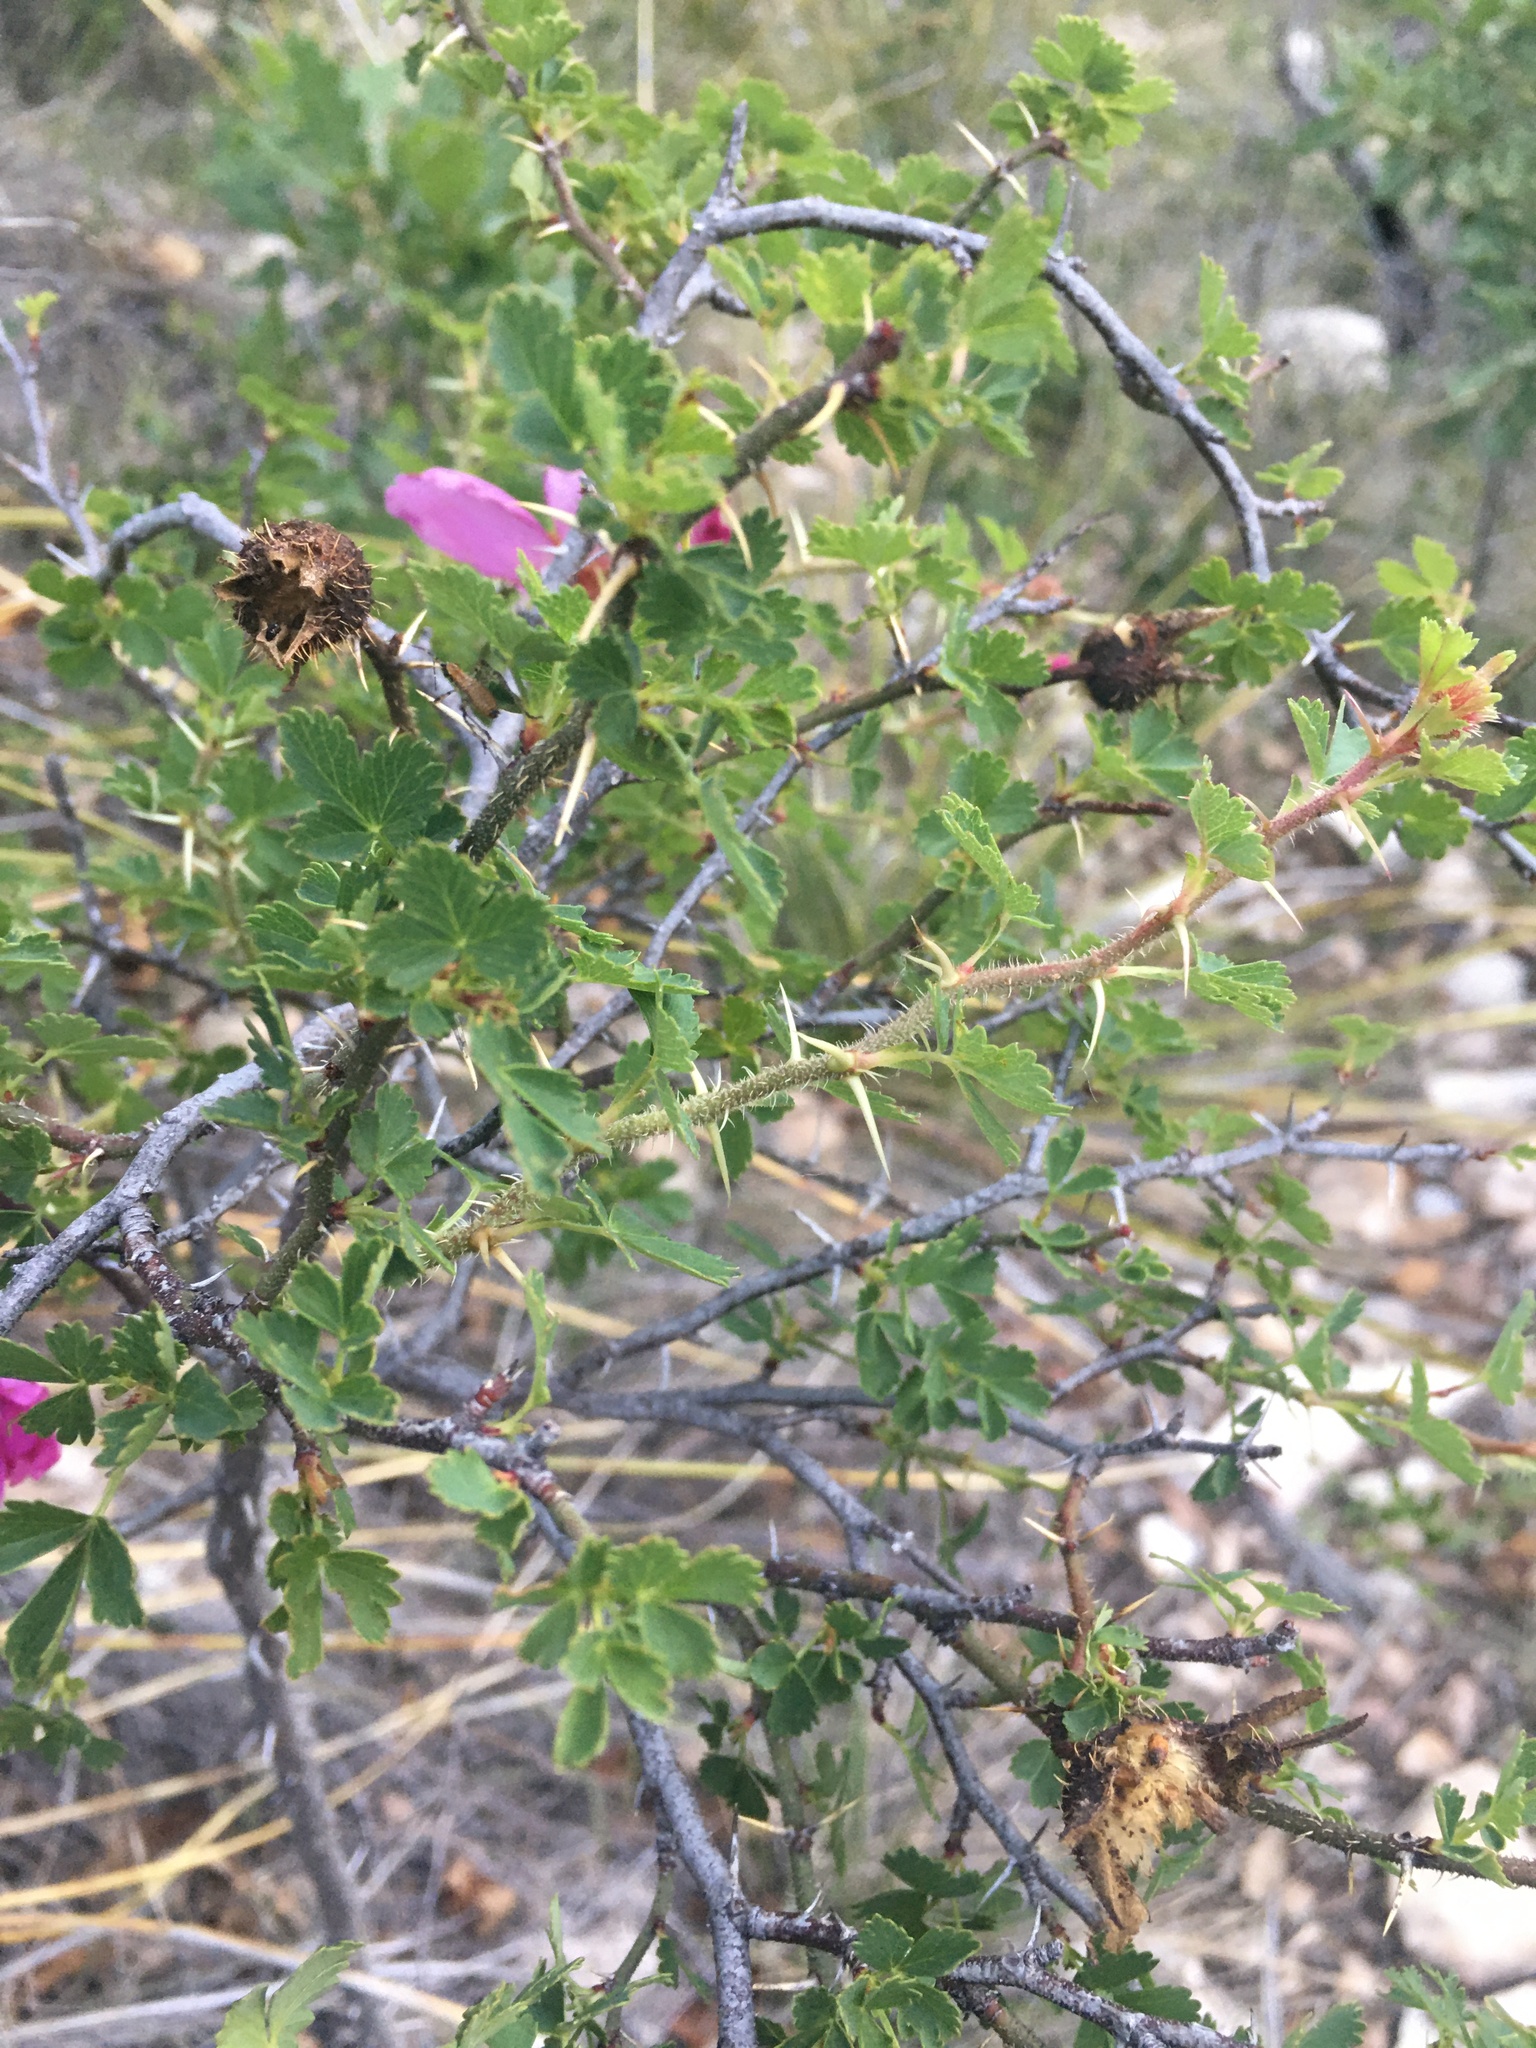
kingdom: Plantae
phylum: Tracheophyta
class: Magnoliopsida
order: Rosales
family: Rosaceae
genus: Rosa
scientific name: Rosa stellata
